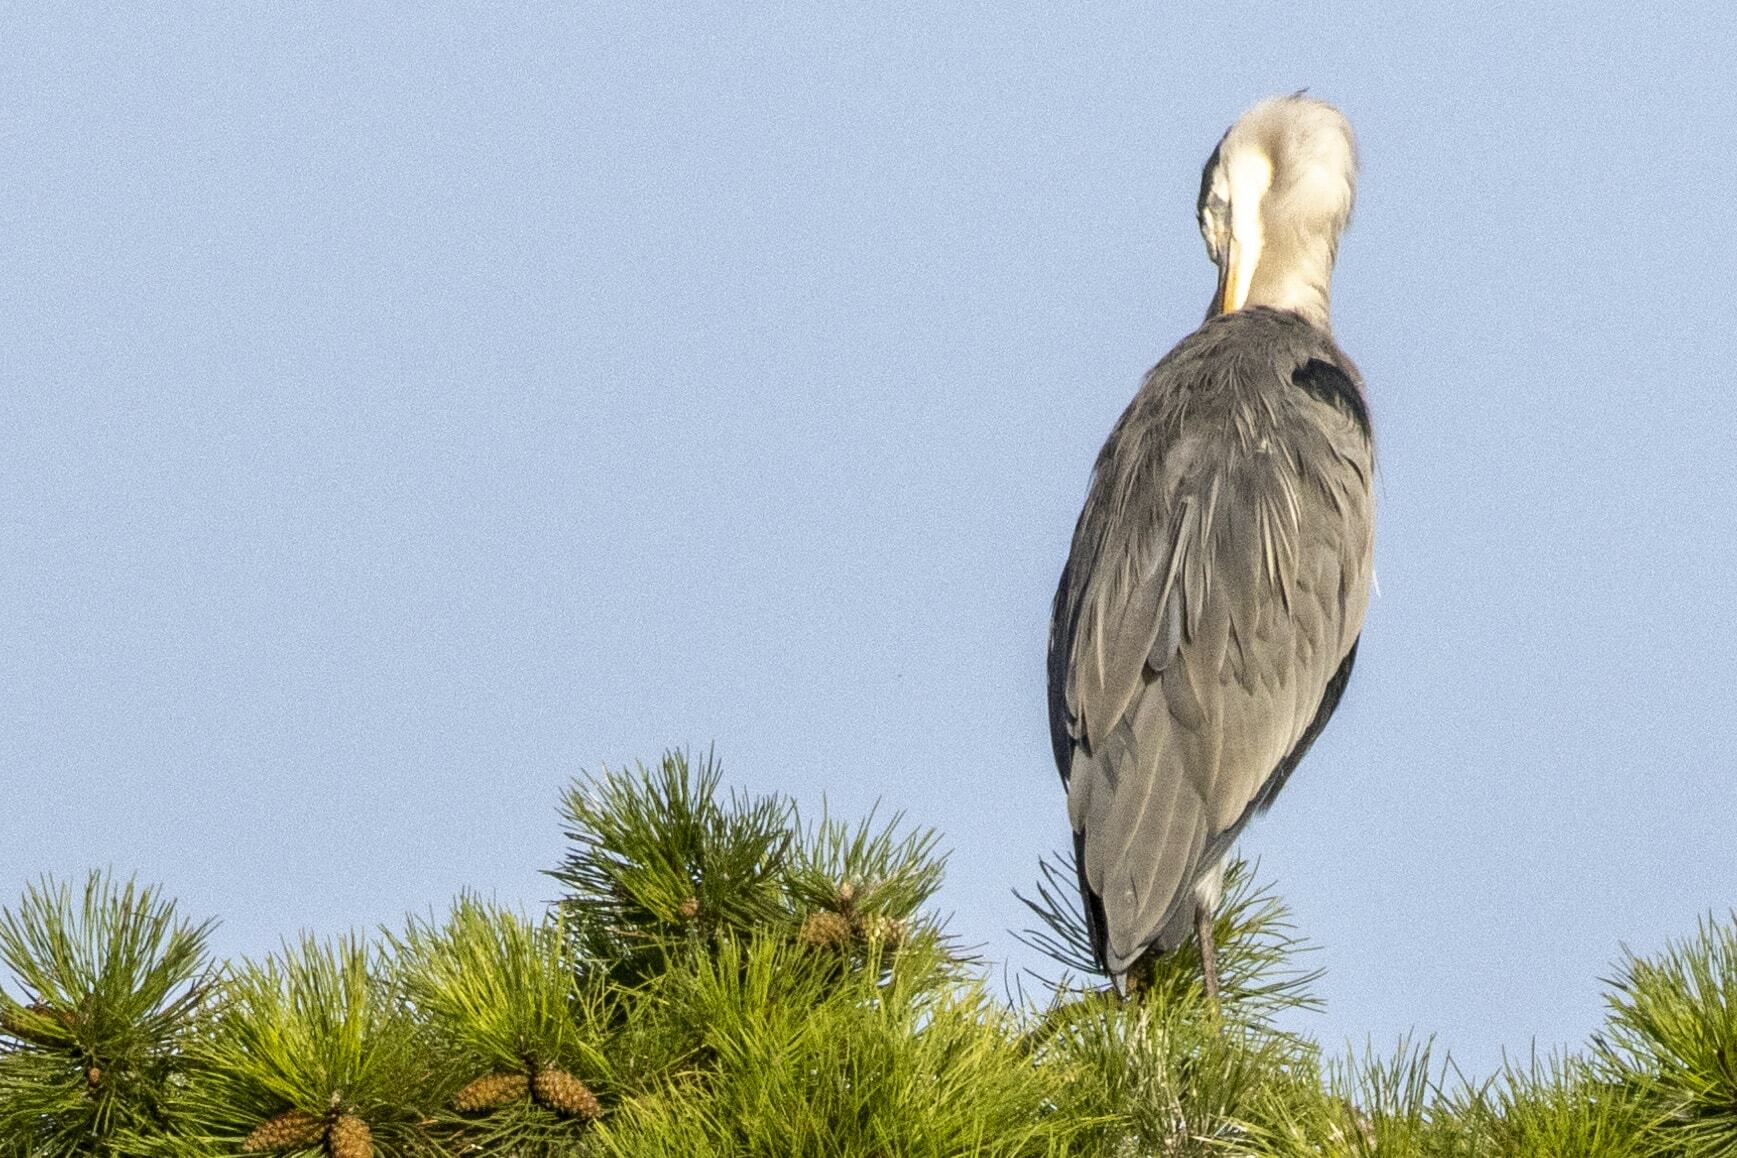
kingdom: Animalia
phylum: Chordata
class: Aves
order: Pelecaniformes
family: Ardeidae
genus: Ardea
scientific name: Ardea cinerea
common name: Grey heron
